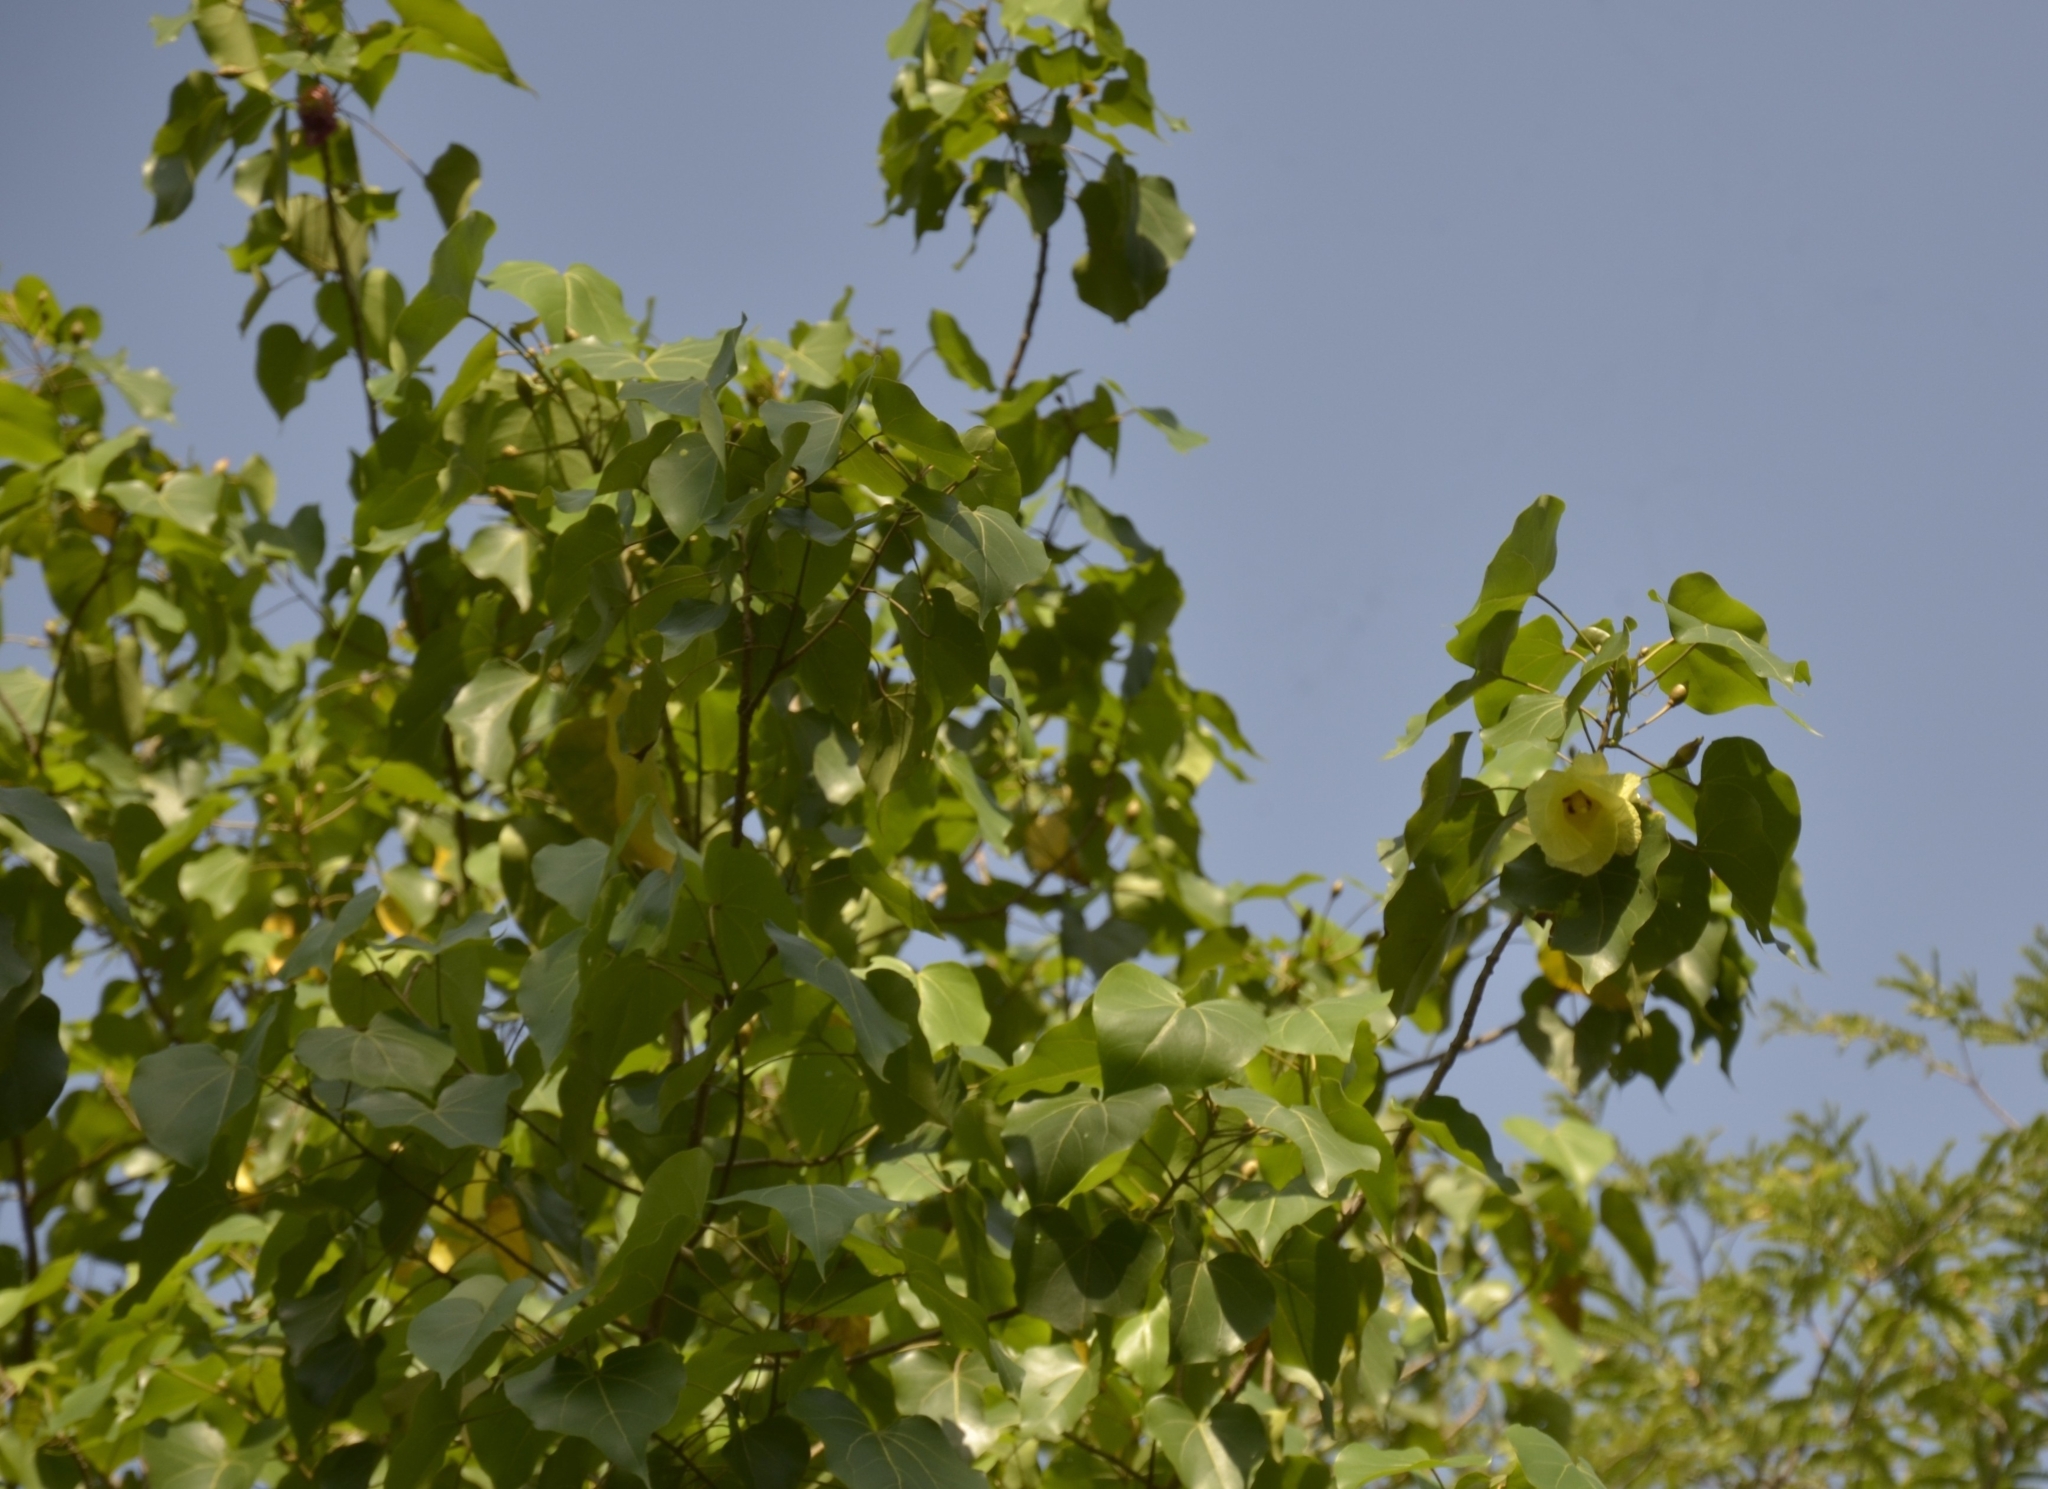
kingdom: Plantae
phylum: Tracheophyta
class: Magnoliopsida
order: Malvales
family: Malvaceae
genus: Thespesia
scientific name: Thespesia populnea
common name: Seaside mahoe
